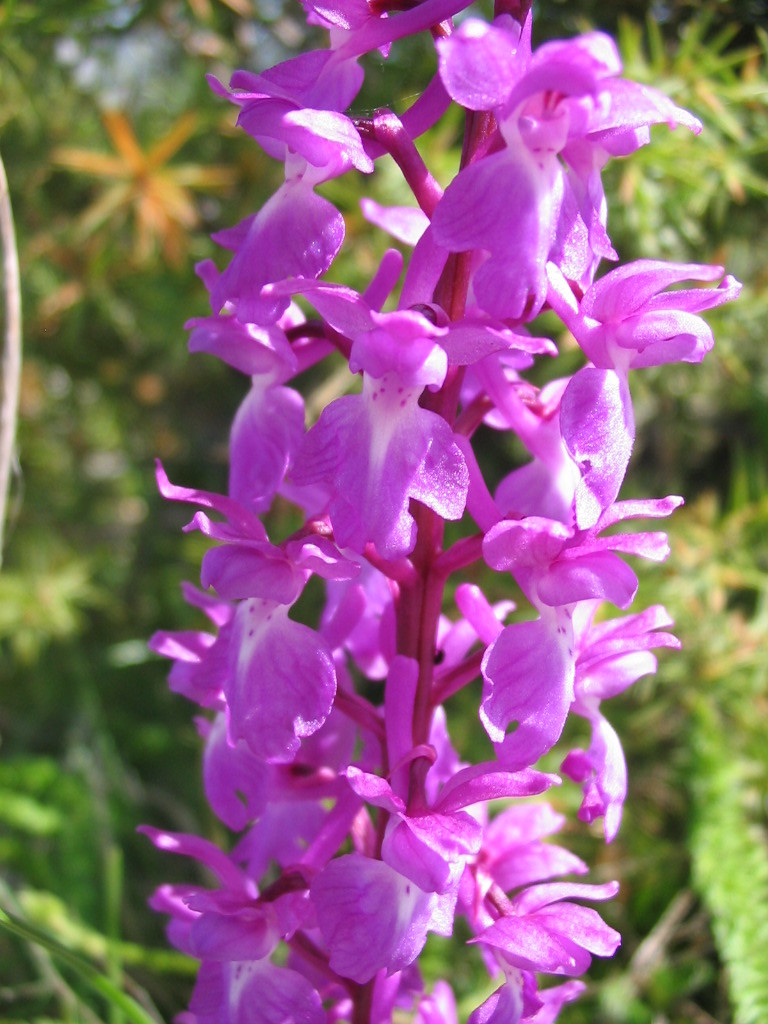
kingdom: Plantae
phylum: Tracheophyta
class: Liliopsida
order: Asparagales
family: Orchidaceae
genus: Orchis
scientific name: Orchis mascula
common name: Early-purple orchid
